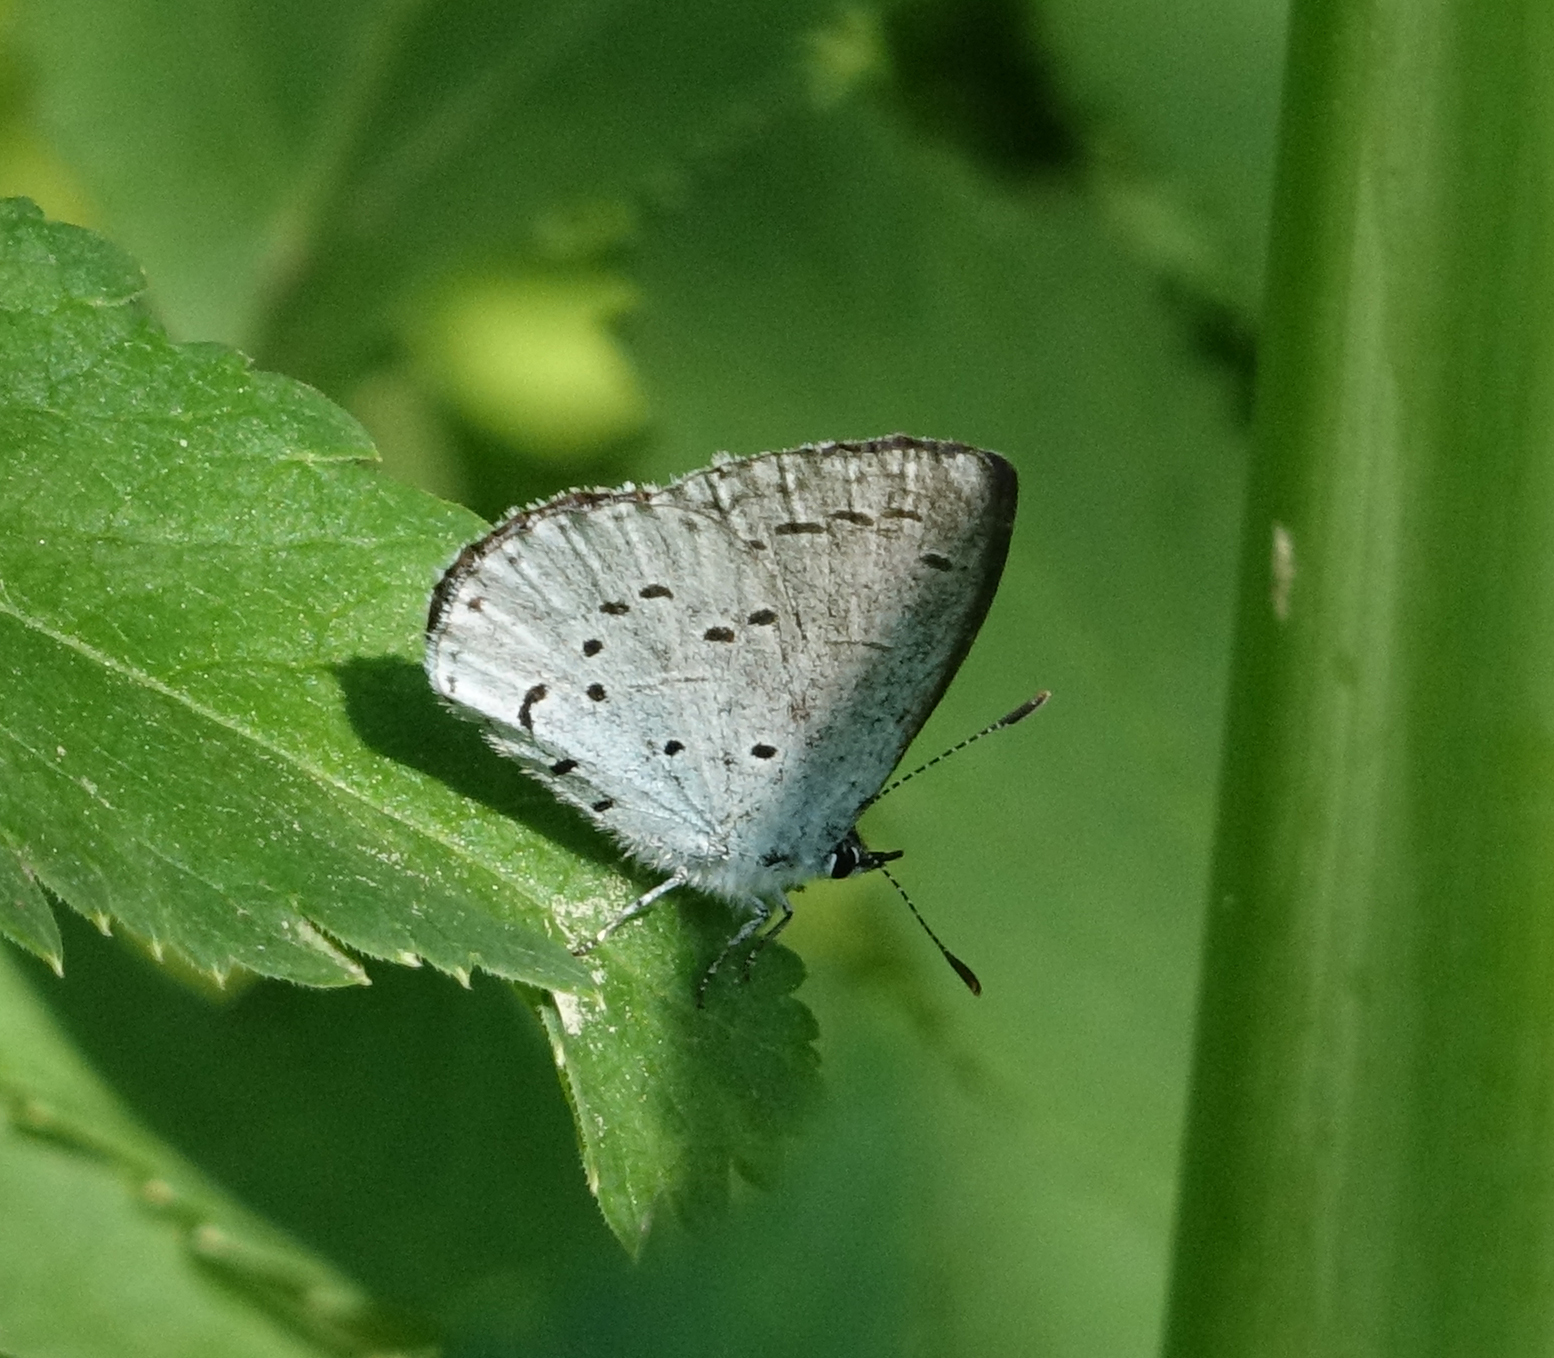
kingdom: Animalia
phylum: Arthropoda
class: Insecta
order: Lepidoptera
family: Lycaenidae
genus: Celastrina
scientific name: Celastrina argiolus
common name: Holly blue
